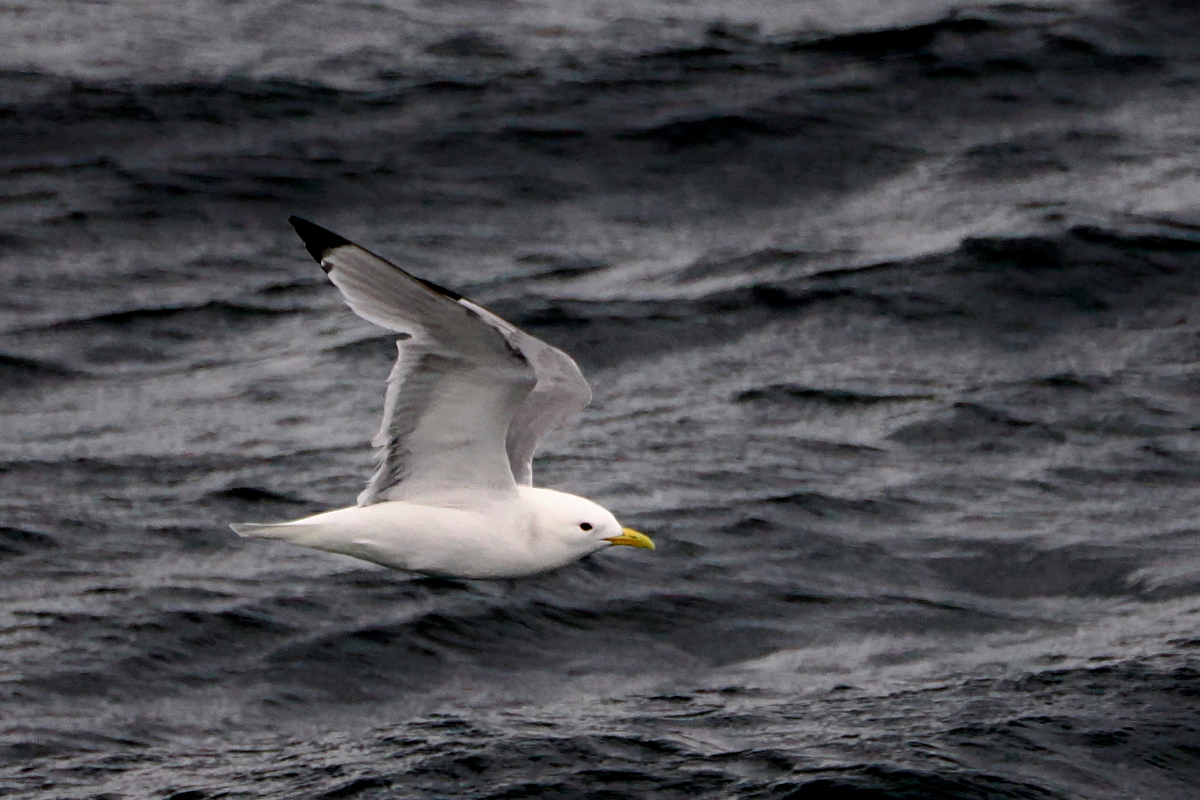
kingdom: Animalia
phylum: Chordata
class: Aves
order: Charadriiformes
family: Laridae
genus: Rissa
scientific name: Rissa tridactyla
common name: Black-legged kittiwake
